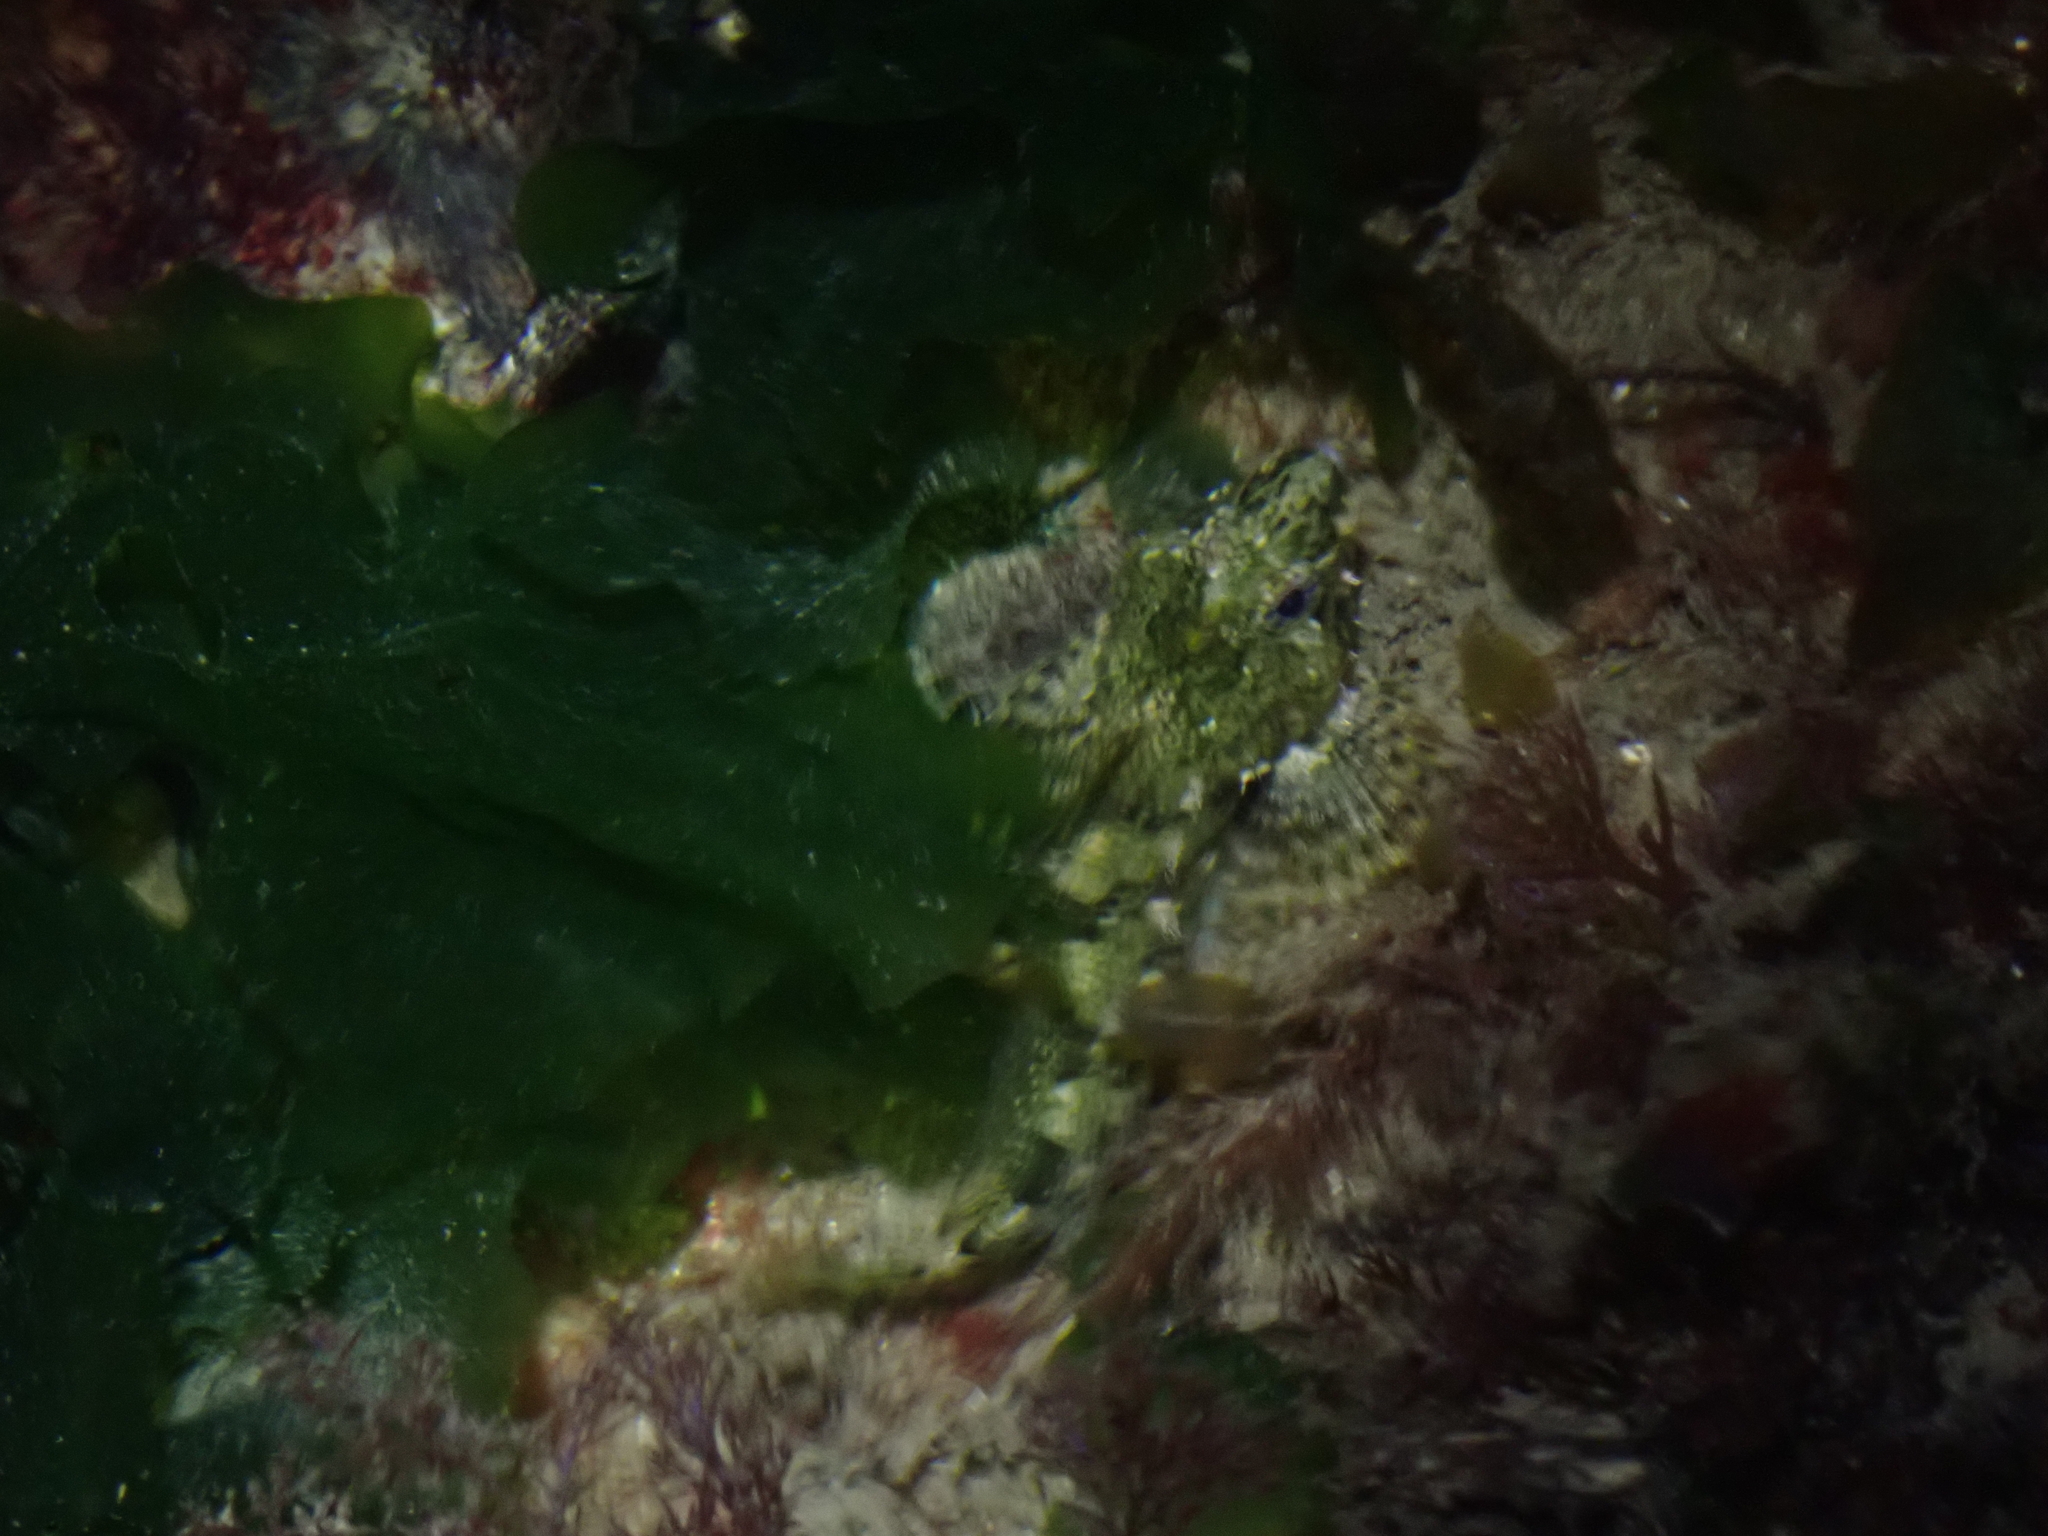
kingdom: Animalia
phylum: Chordata
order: Scorpaeniformes
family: Cottidae
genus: Oligocottus
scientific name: Oligocottus maculosus
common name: Tidepool sculpin
